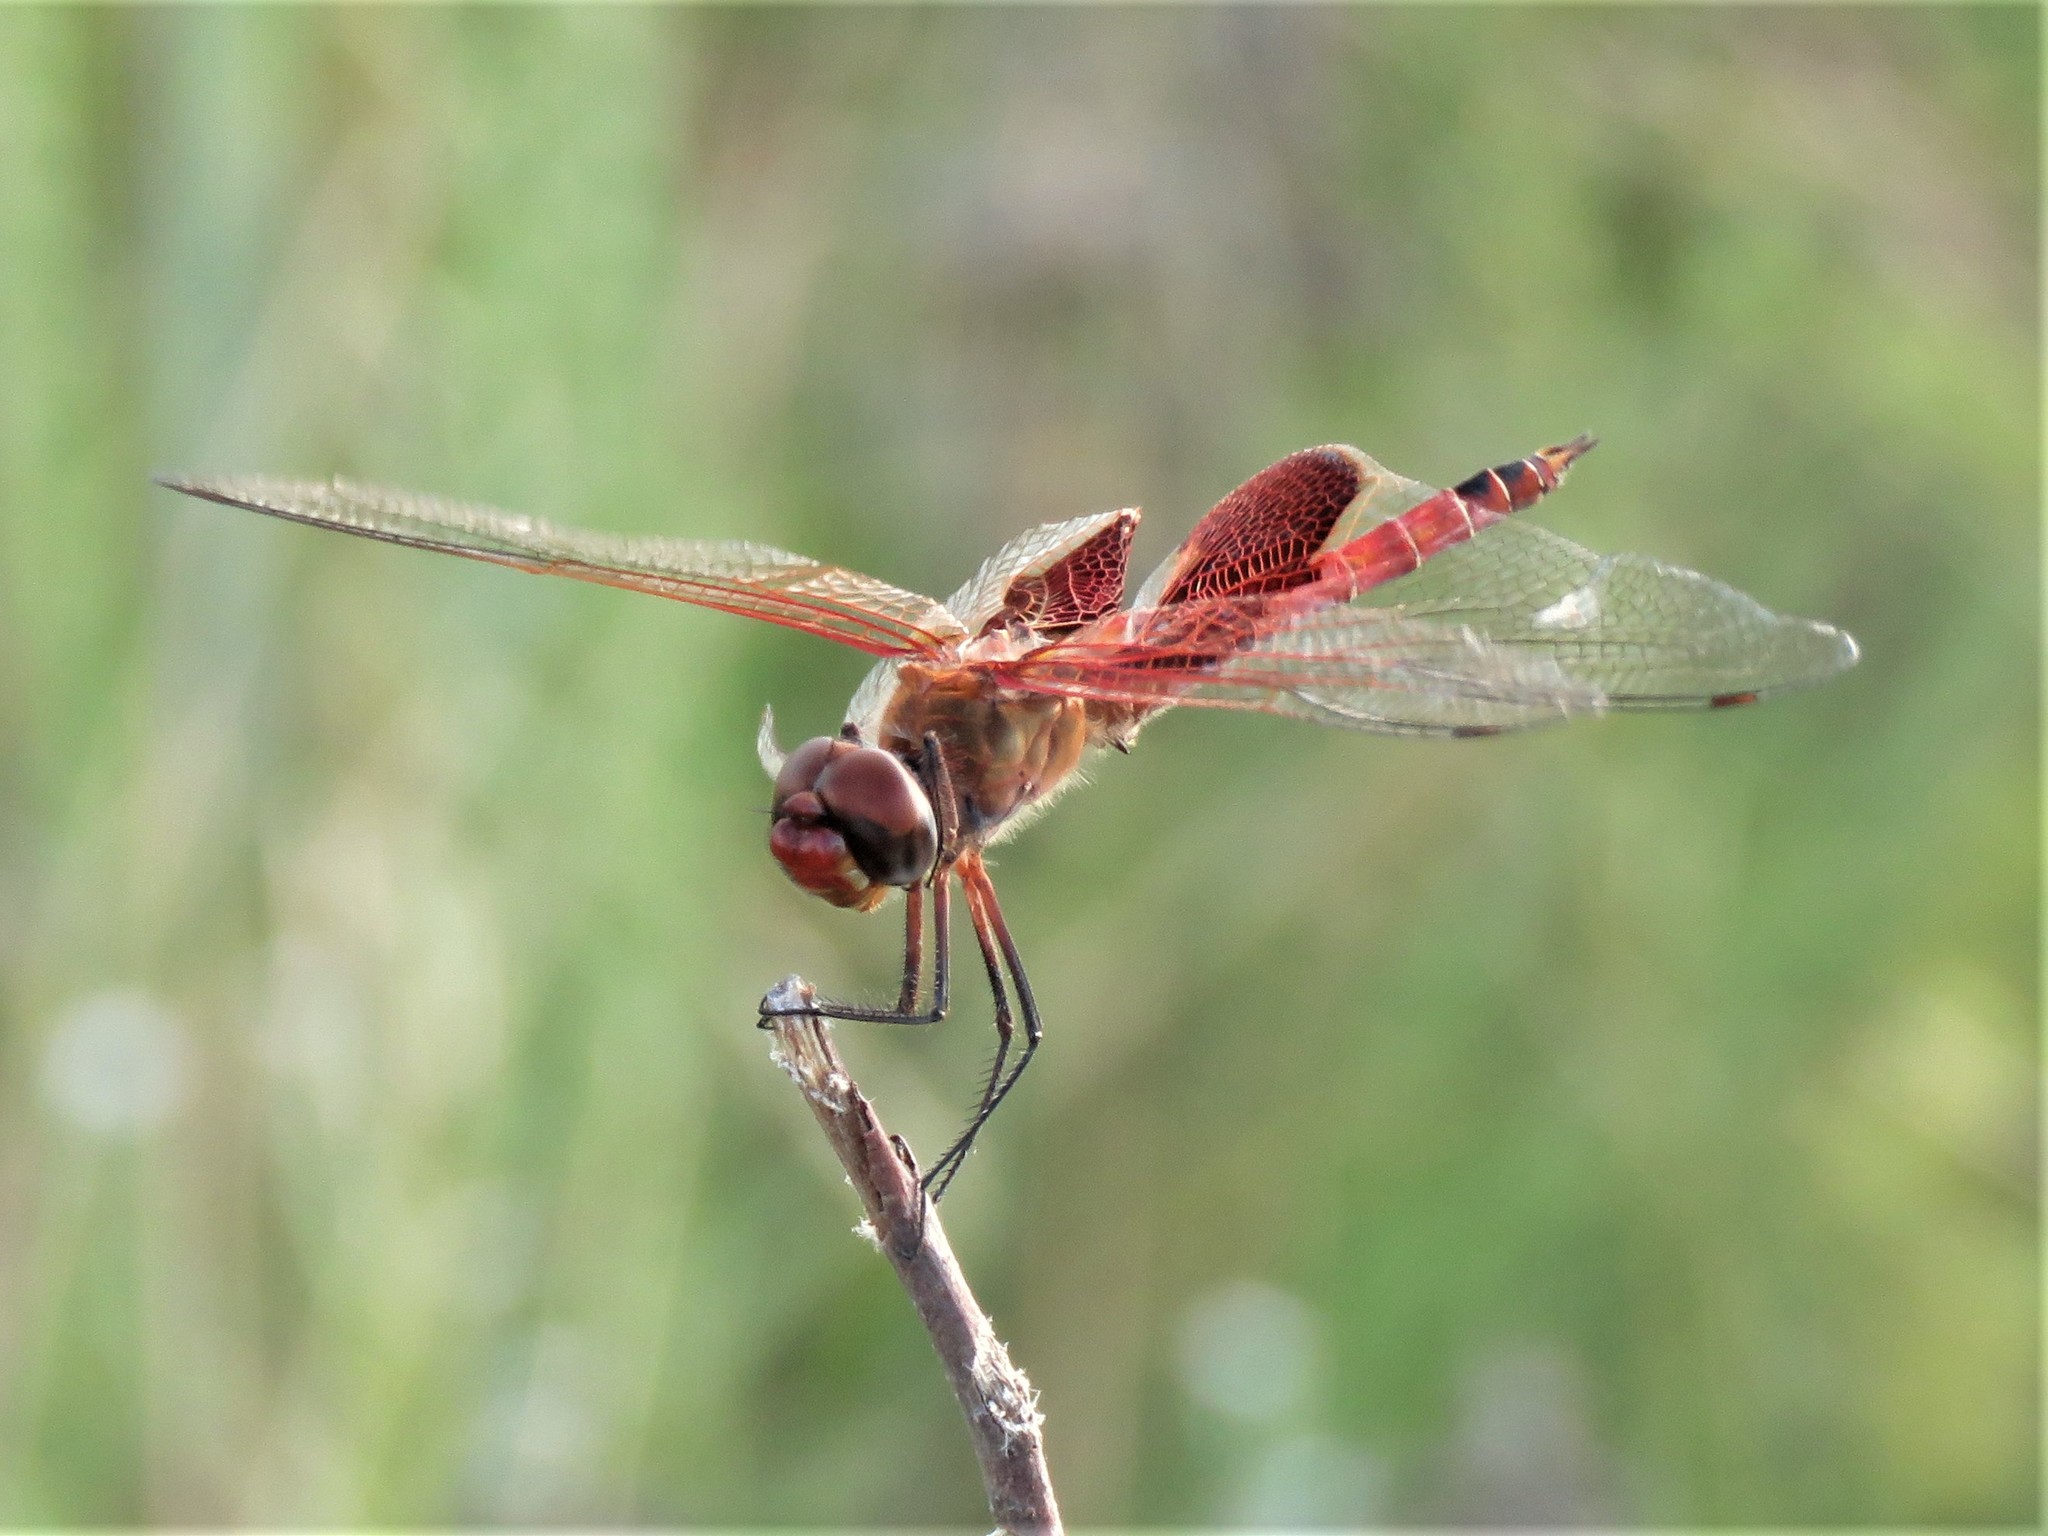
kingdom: Animalia
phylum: Arthropoda
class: Insecta
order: Odonata
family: Libellulidae
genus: Tramea
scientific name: Tramea onusta
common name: Red saddlebags
